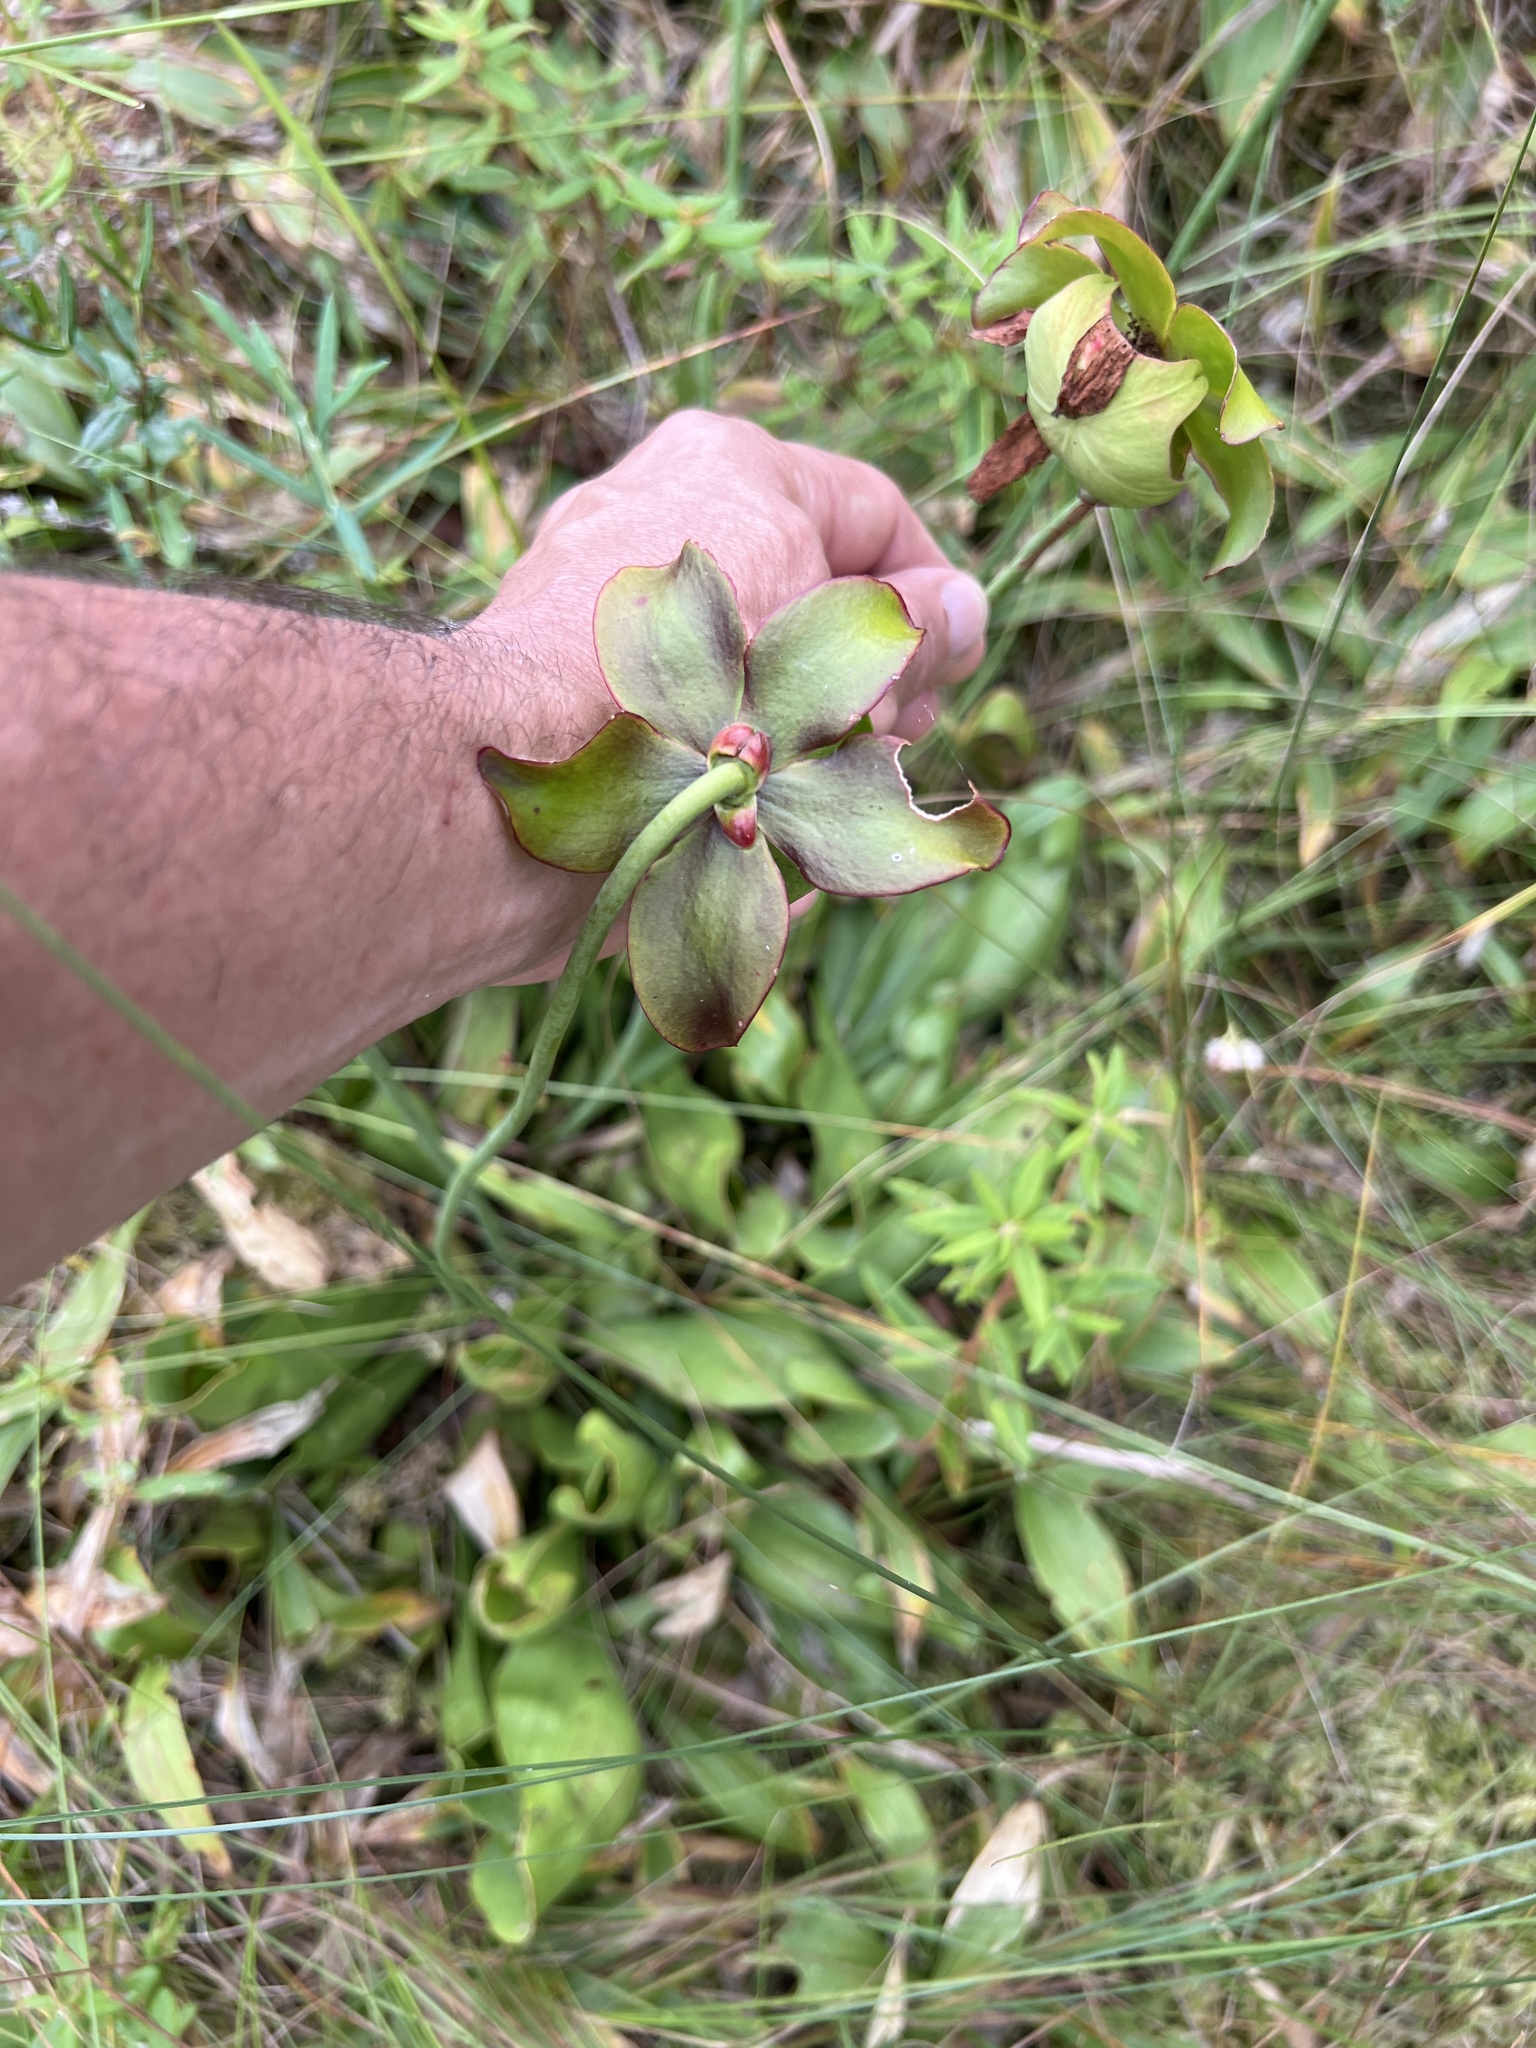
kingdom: Plantae
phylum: Tracheophyta
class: Magnoliopsida
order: Ericales
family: Sarraceniaceae
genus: Sarracenia
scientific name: Sarracenia purpurea
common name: Pitcherplant
